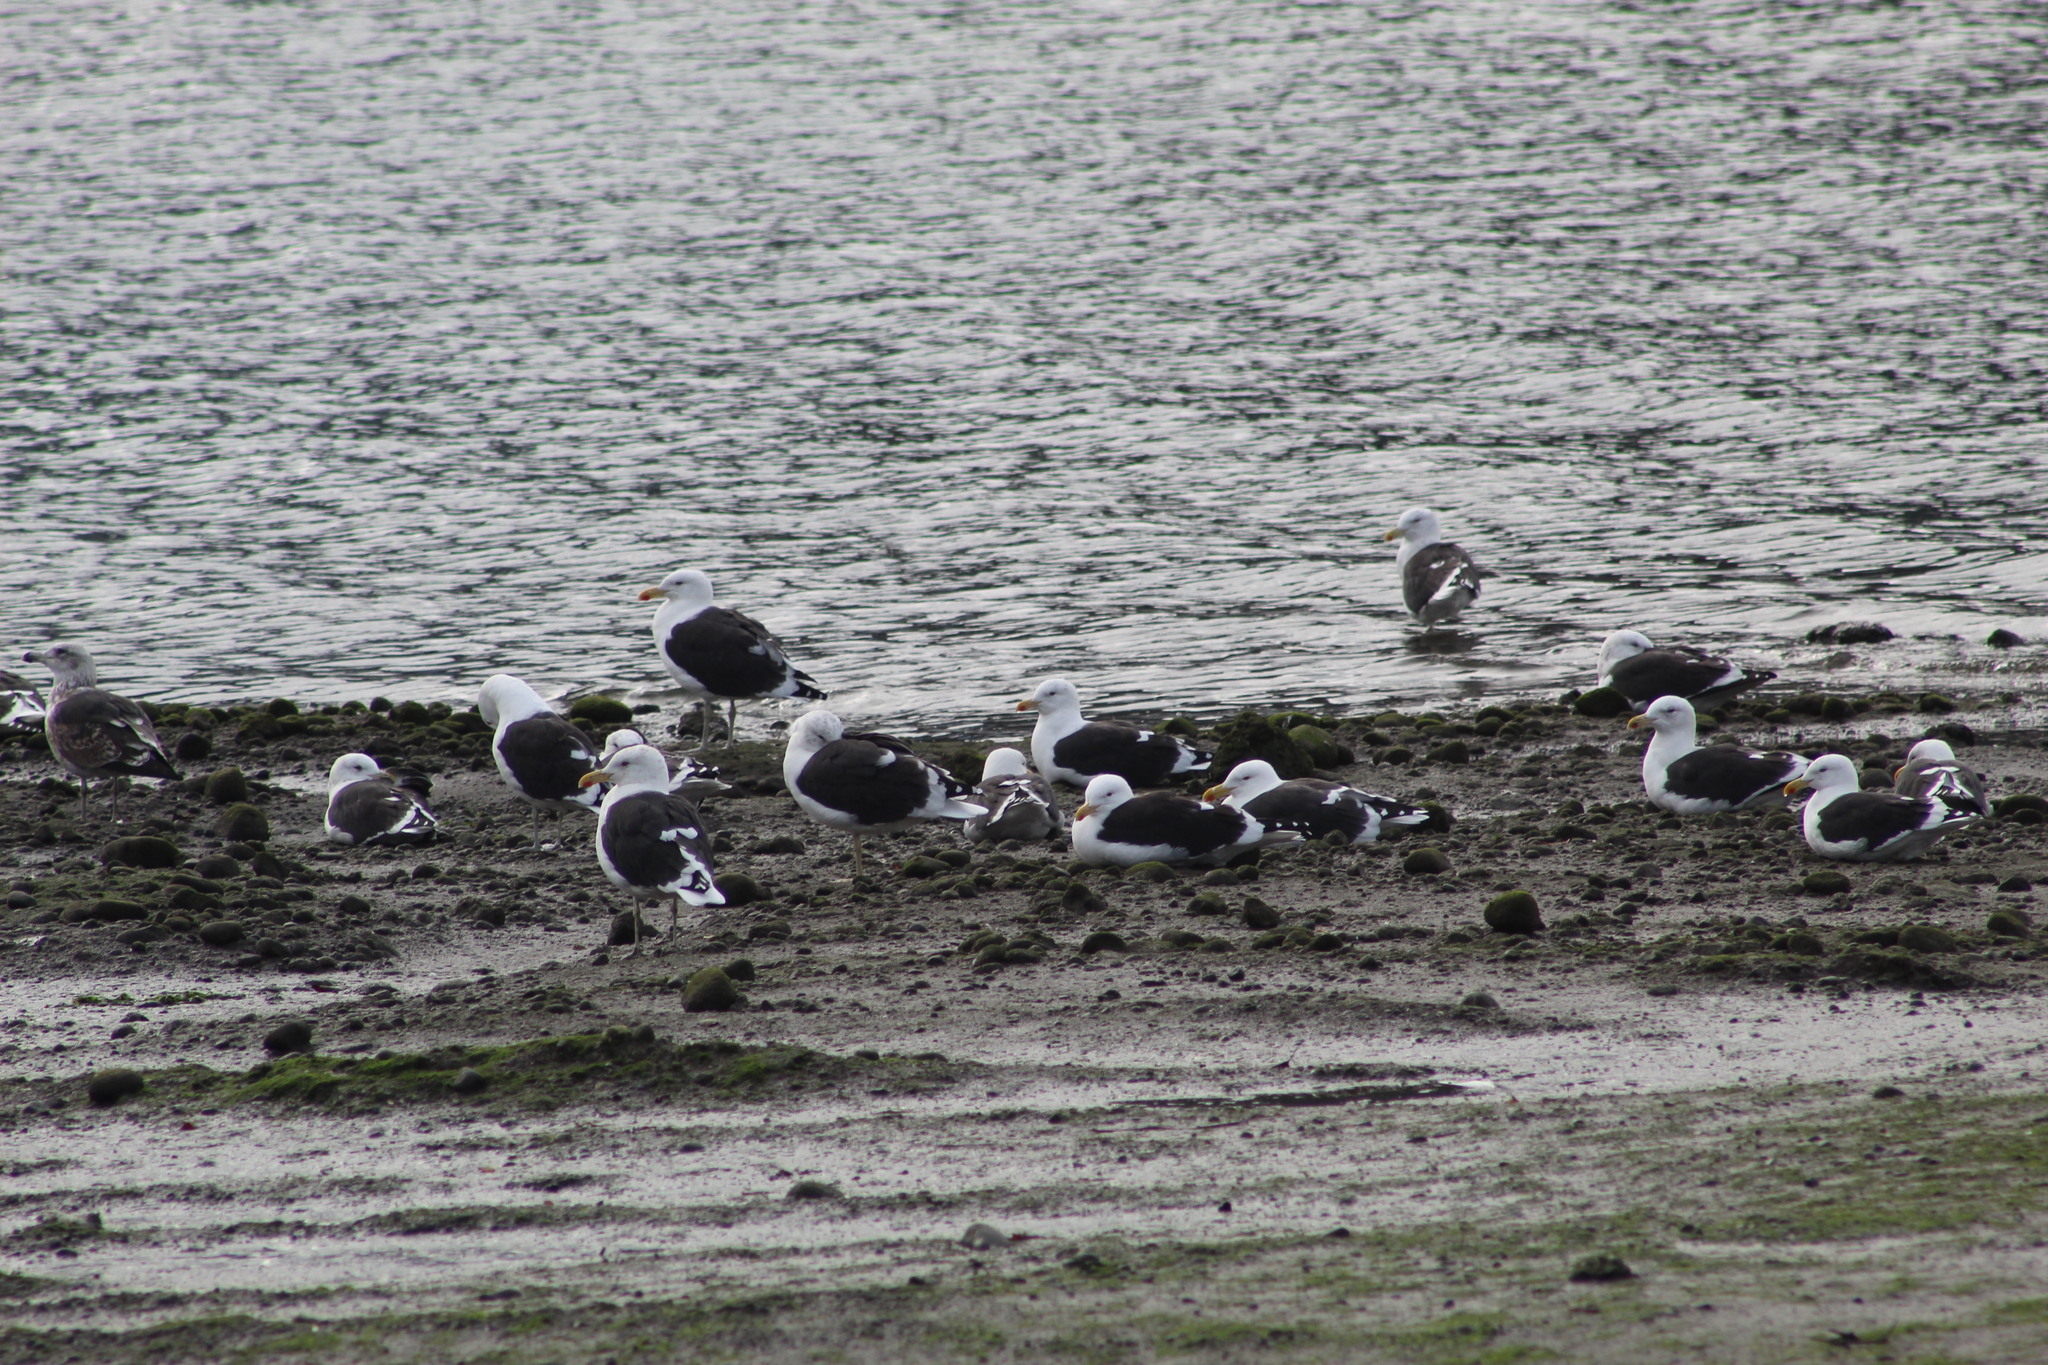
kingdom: Animalia
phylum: Chordata
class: Aves
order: Charadriiformes
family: Laridae
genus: Larus
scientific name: Larus dominicanus
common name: Kelp gull
